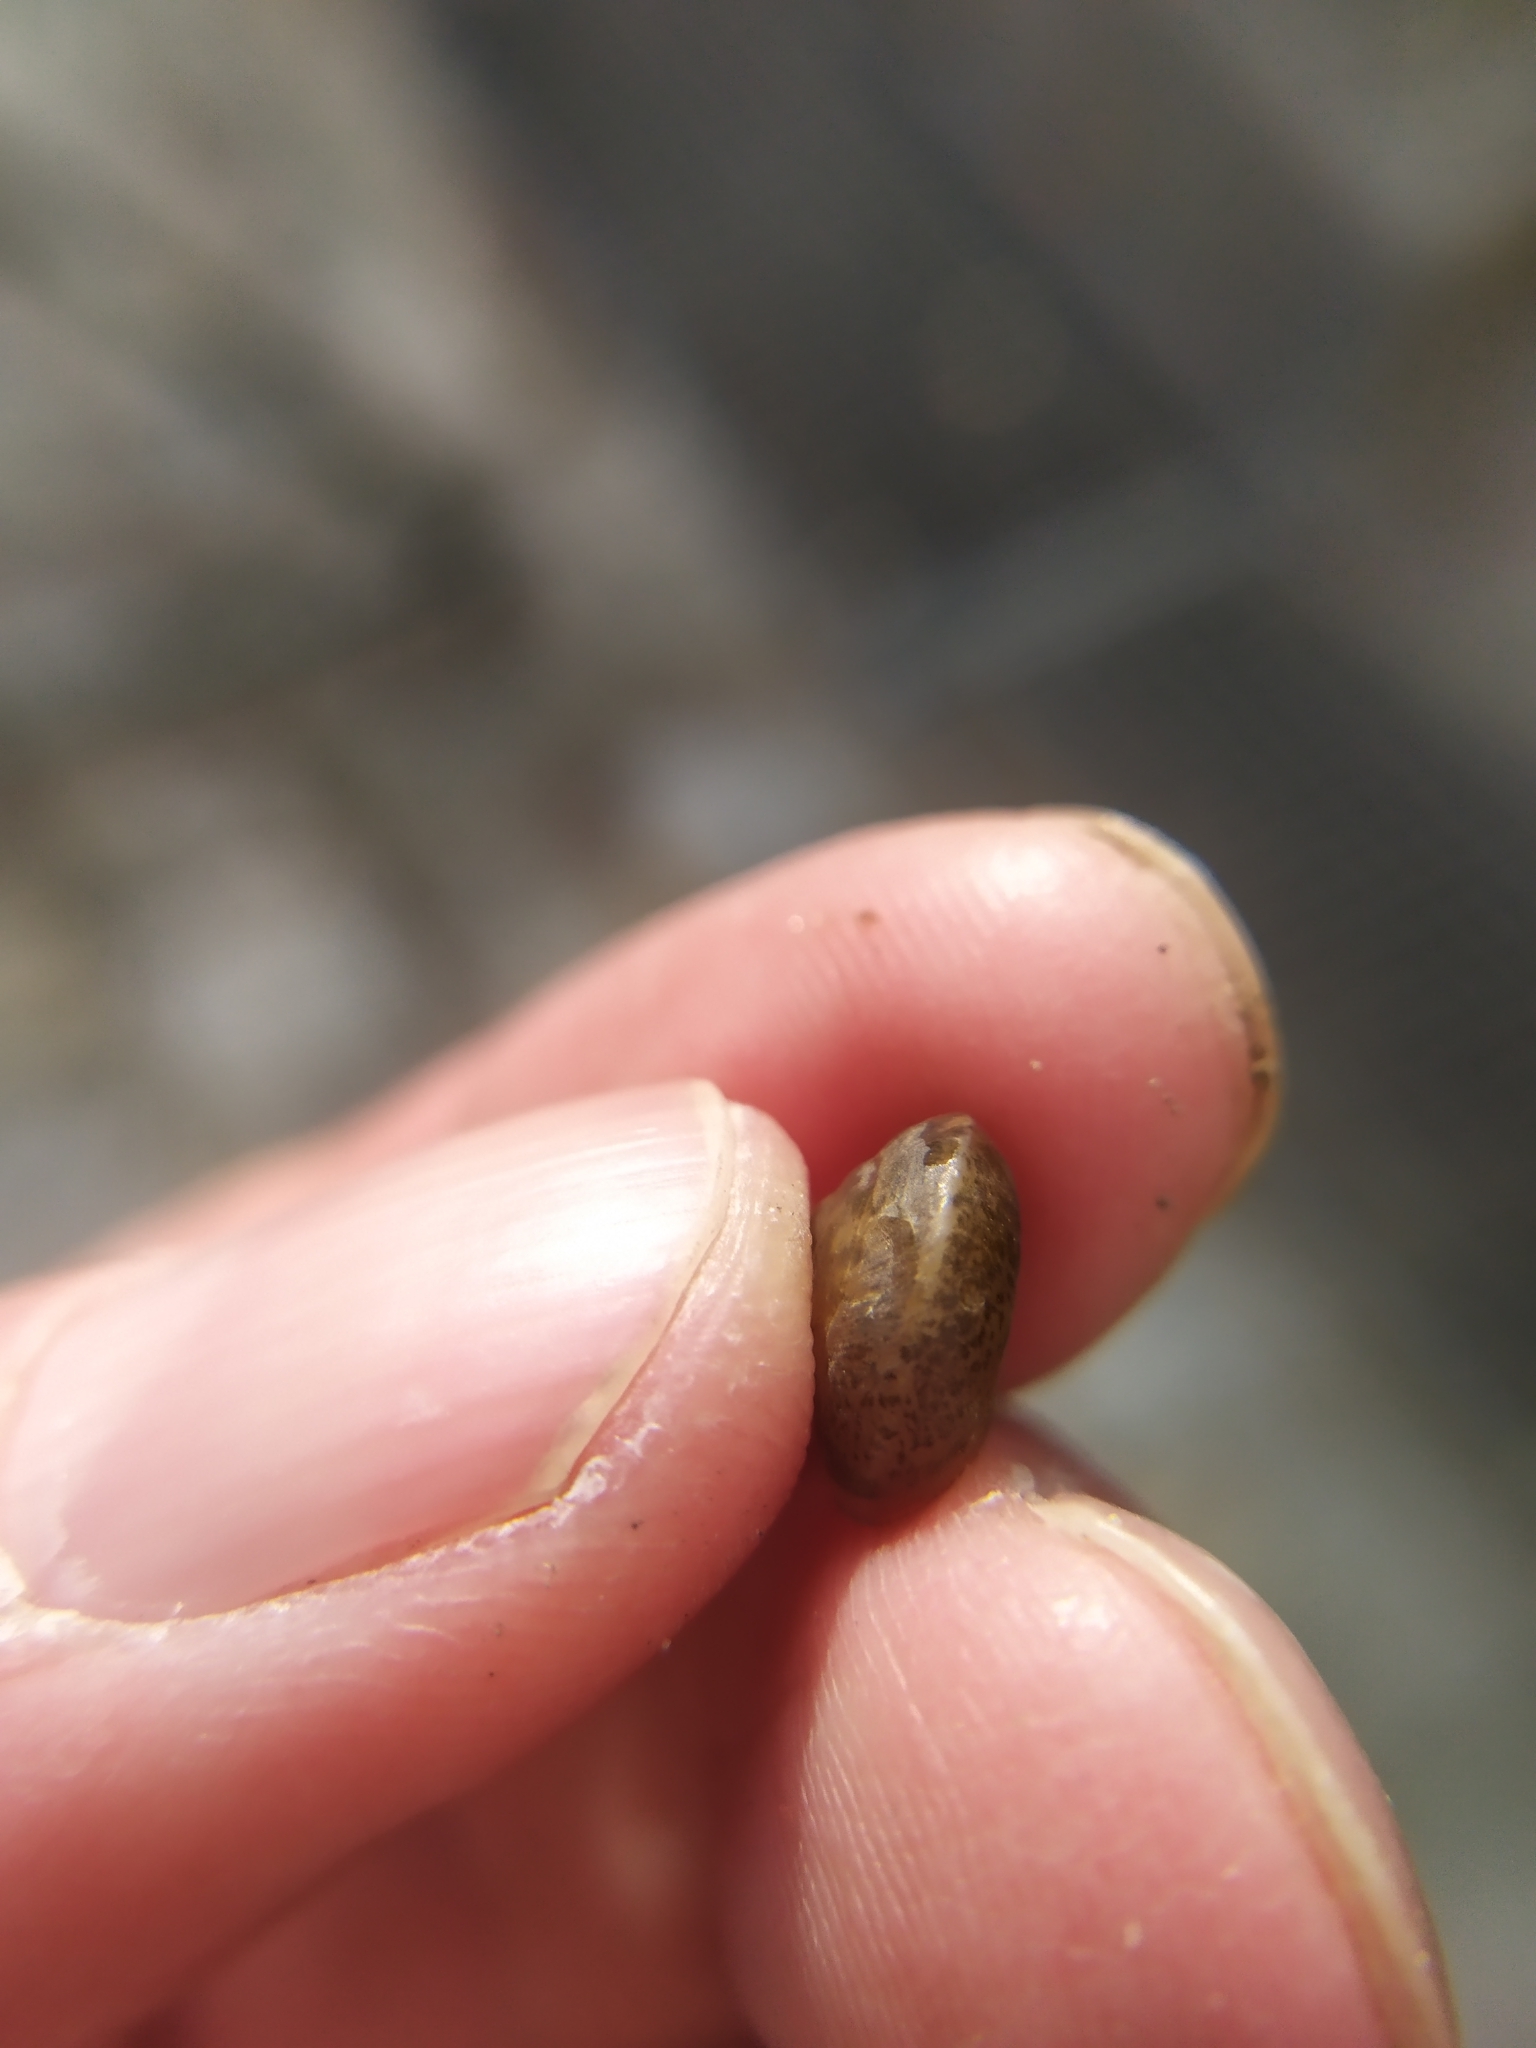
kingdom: Animalia
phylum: Mollusca
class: Gastropoda
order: Stylommatophora
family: Hygromiidae
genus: Hygromia
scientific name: Hygromia cinctella
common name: Girdled snail
